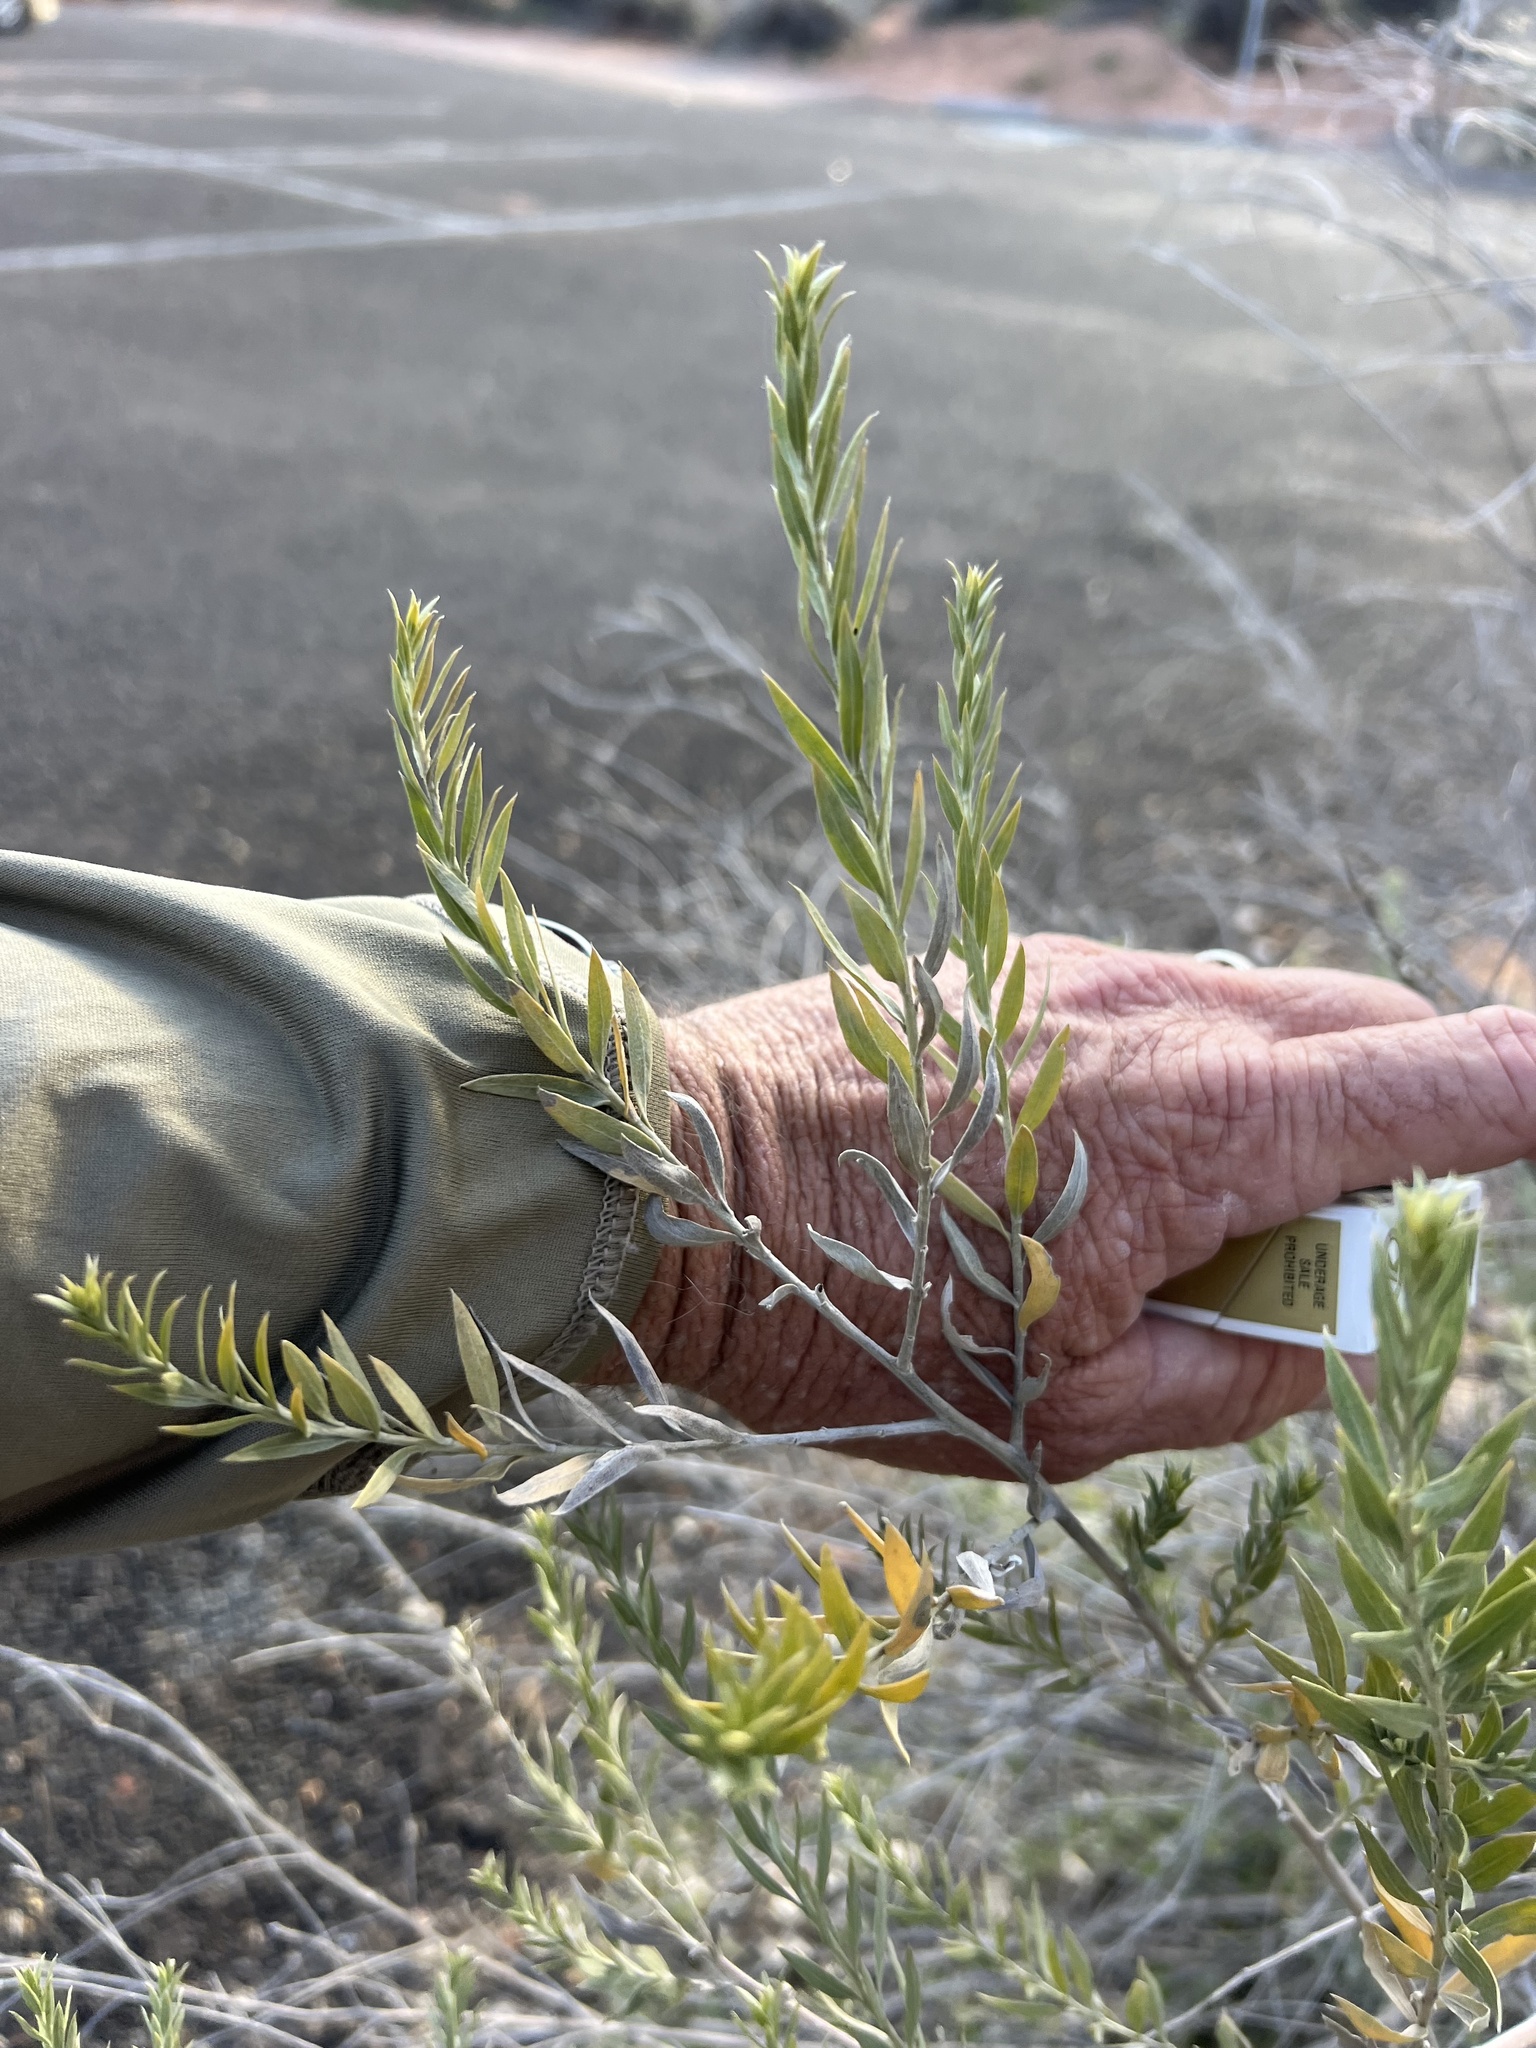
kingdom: Plantae
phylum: Tracheophyta
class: Magnoliopsida
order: Asterales
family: Asteraceae
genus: Pluchea
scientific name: Pluchea sericea
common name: Arrow-weed
